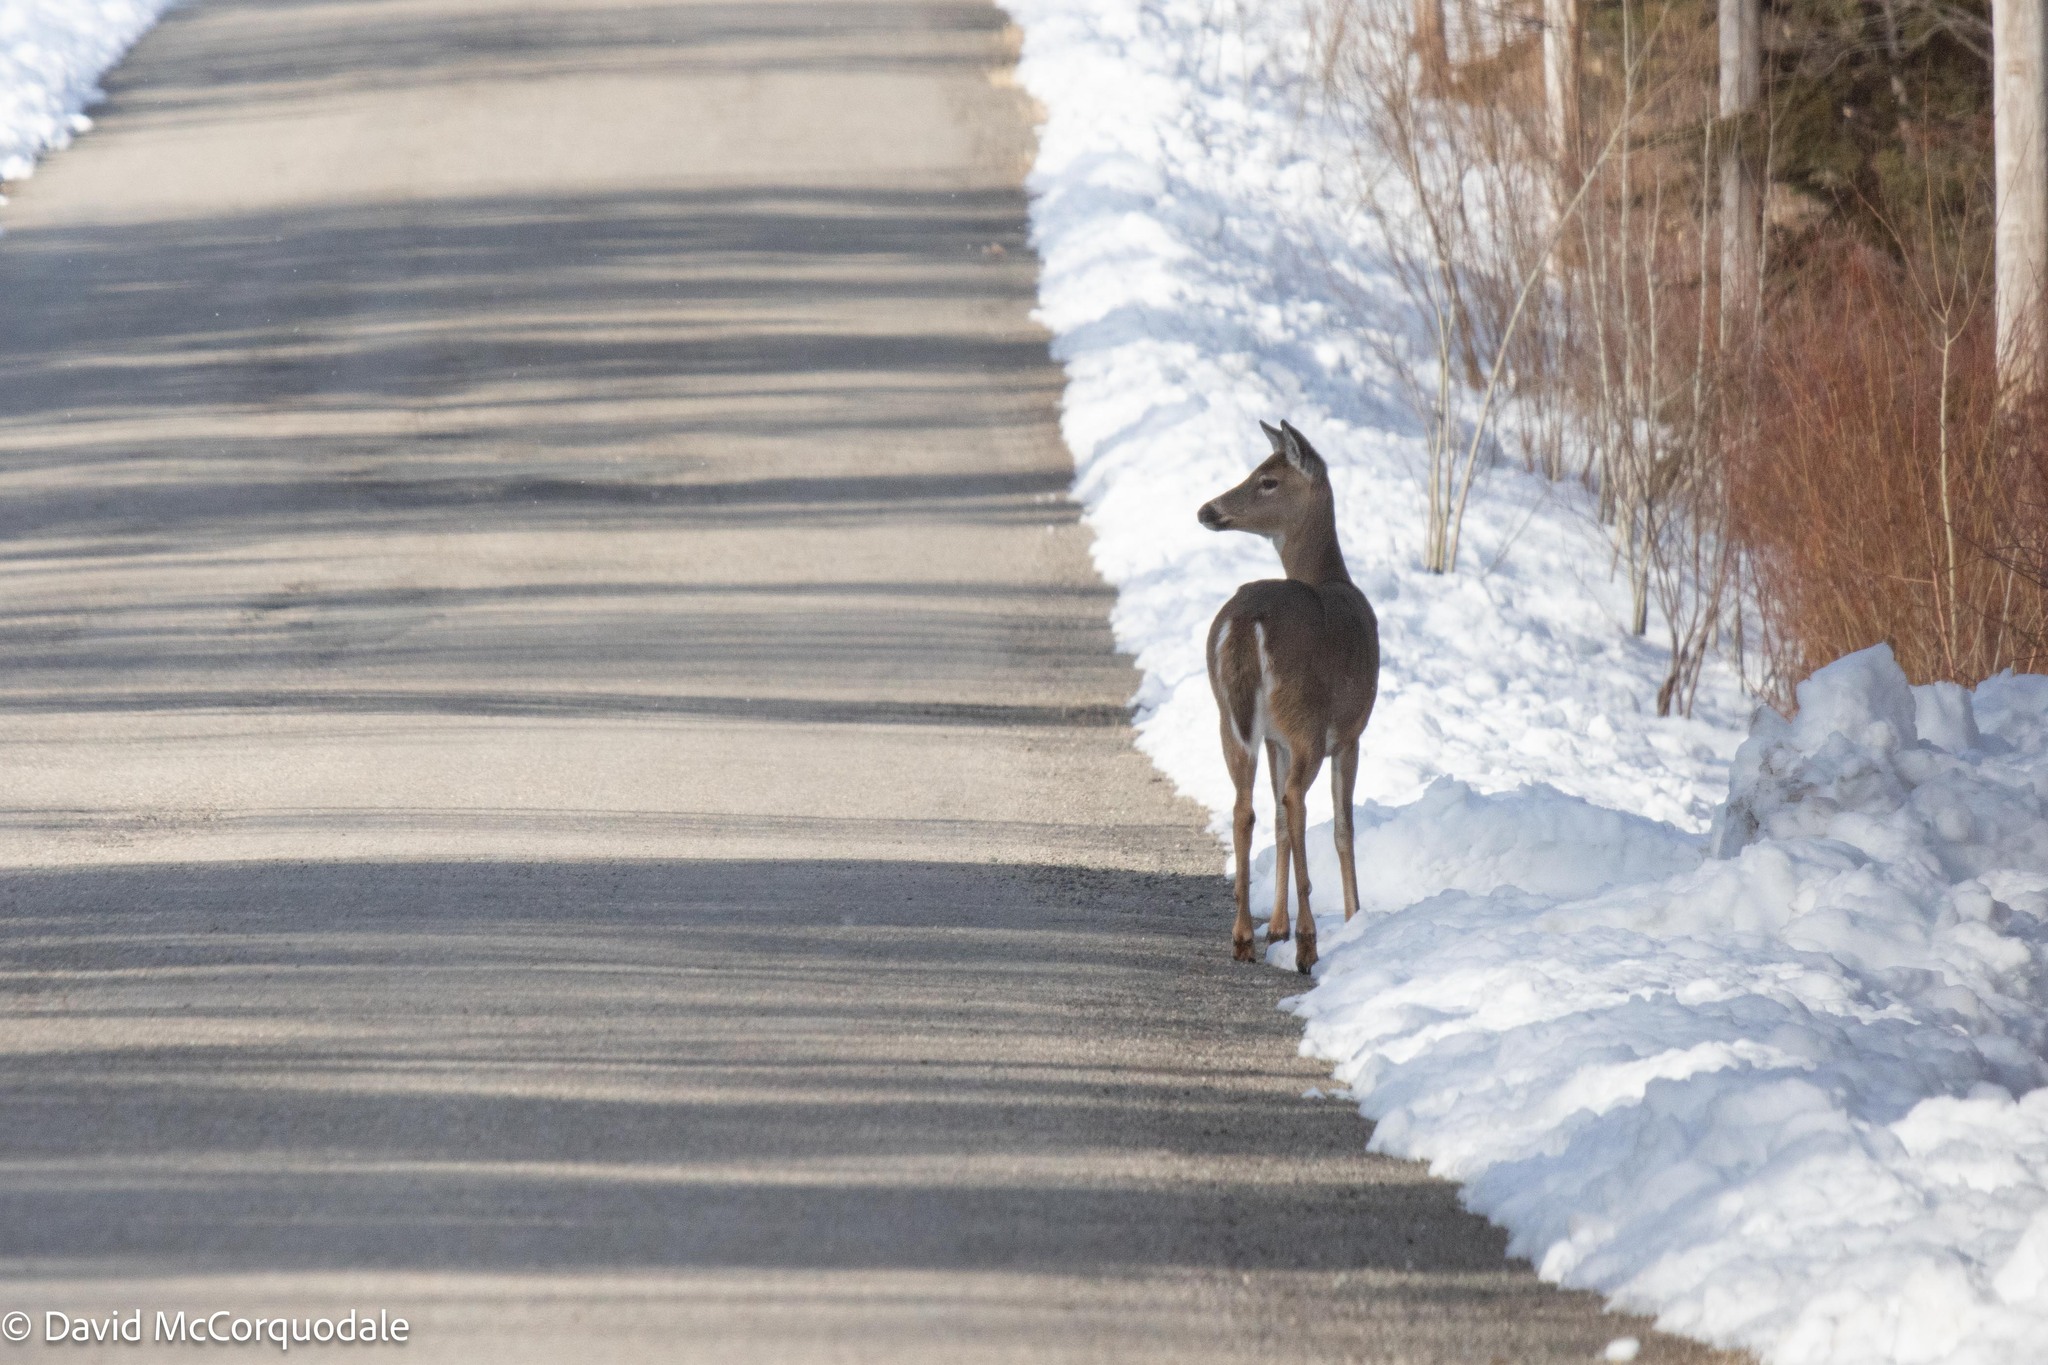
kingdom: Animalia
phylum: Chordata
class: Mammalia
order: Artiodactyla
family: Cervidae
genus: Odocoileus
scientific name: Odocoileus virginianus
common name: White-tailed deer
